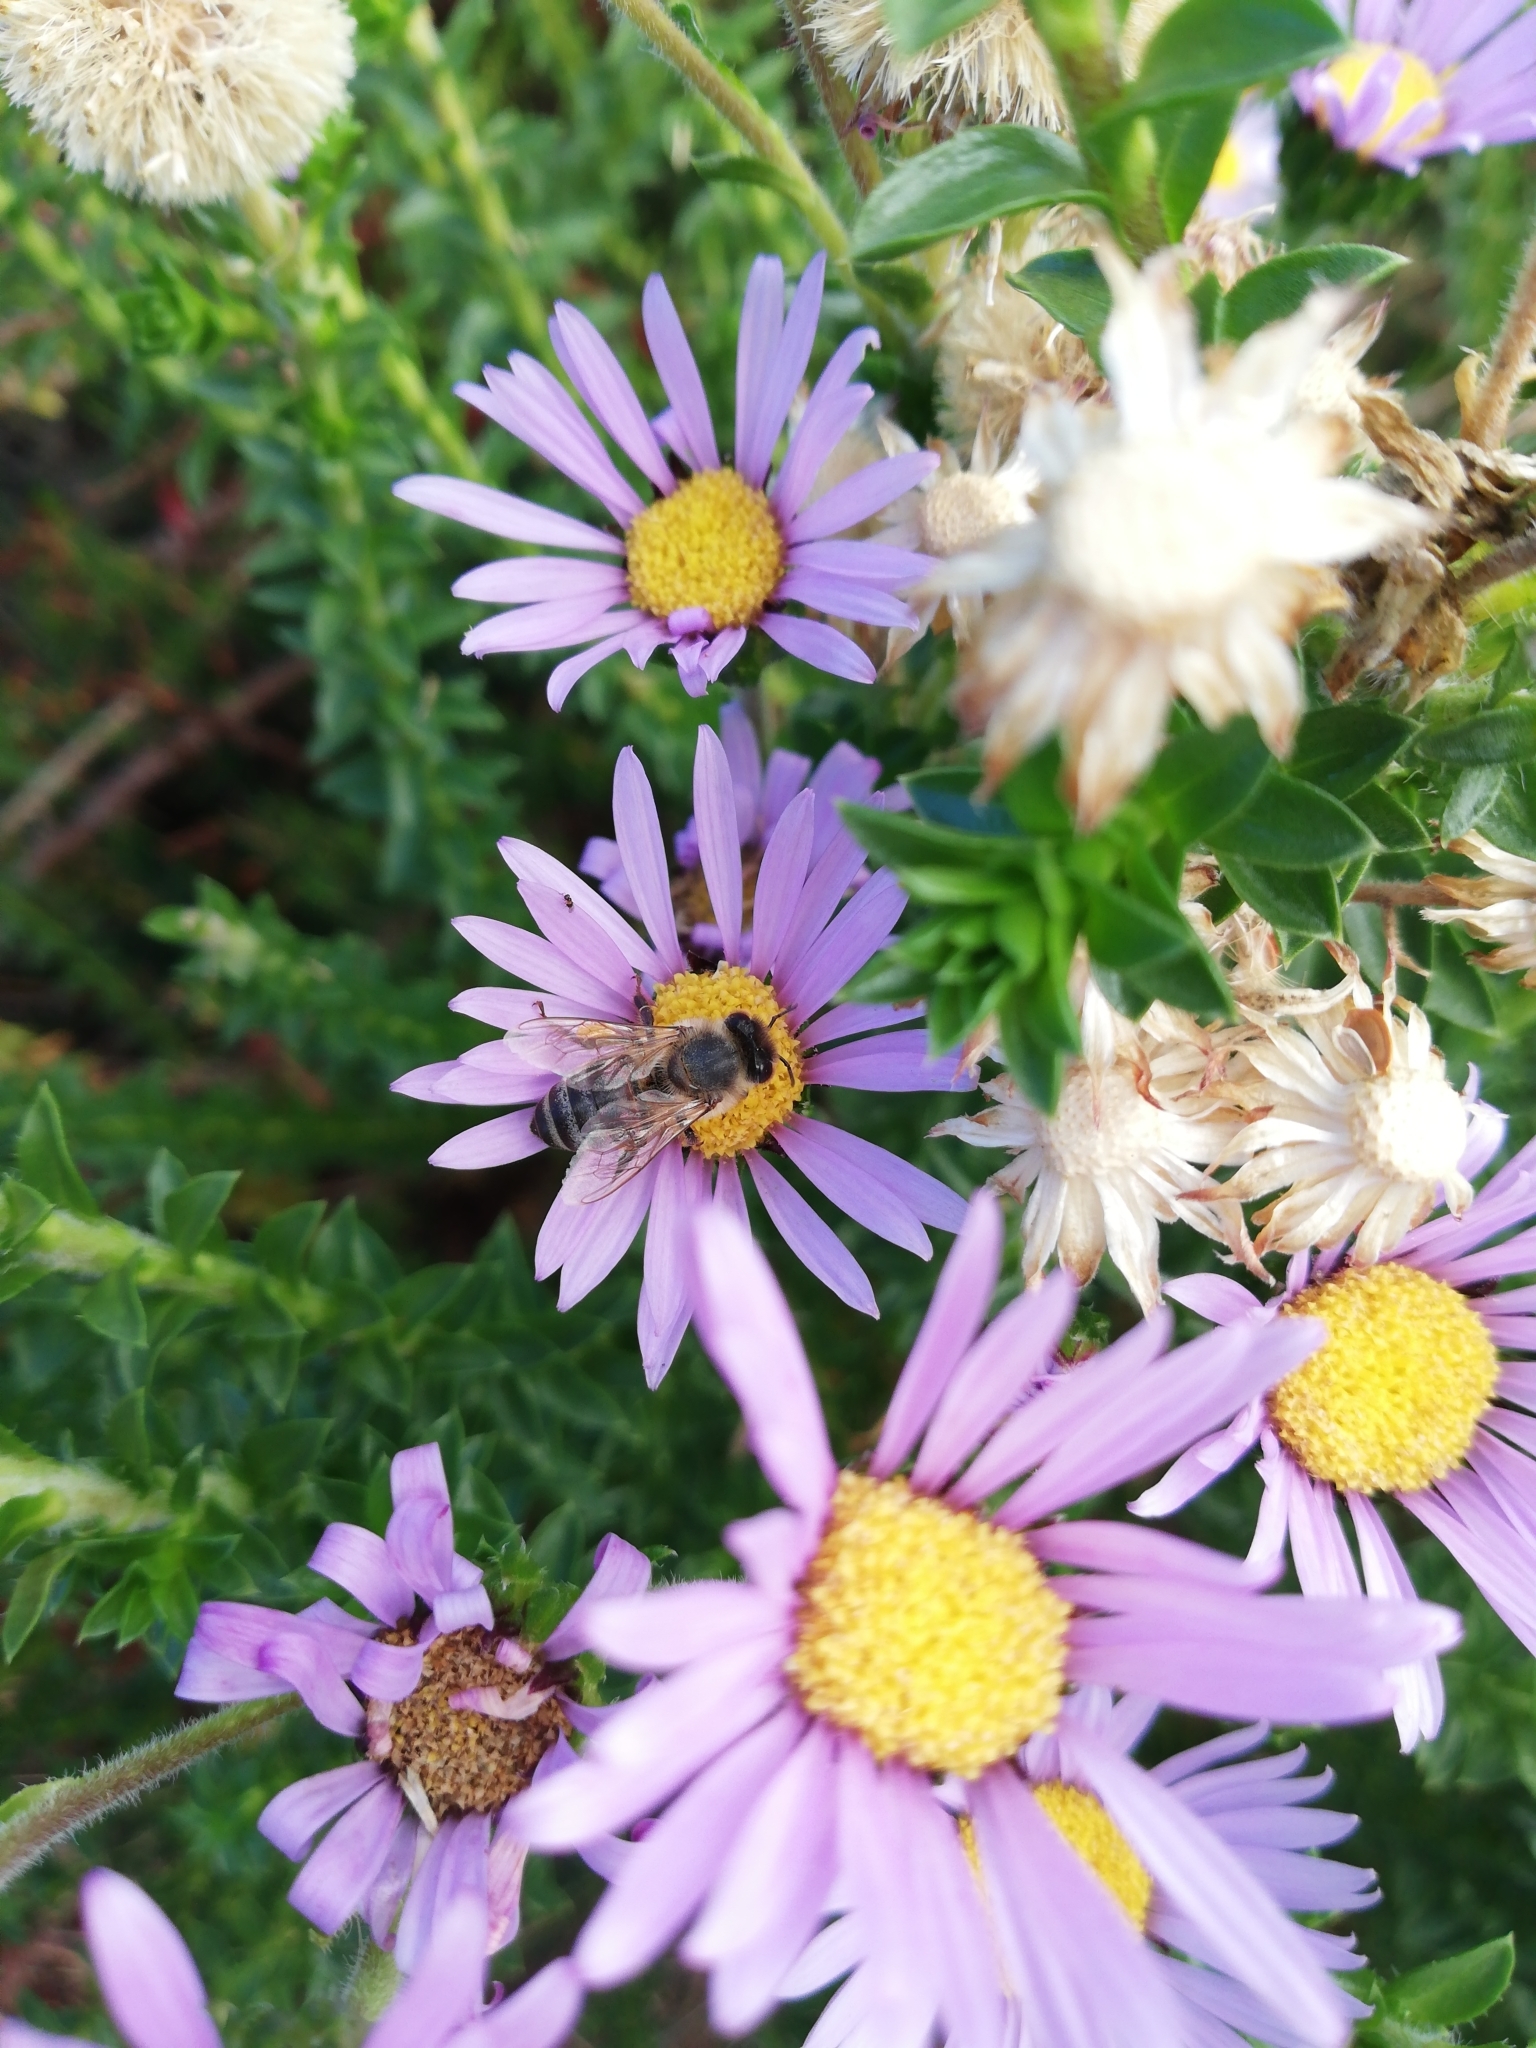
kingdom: Plantae
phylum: Tracheophyta
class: Magnoliopsida
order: Asterales
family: Asteraceae
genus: Felicia
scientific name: Felicia echinata
